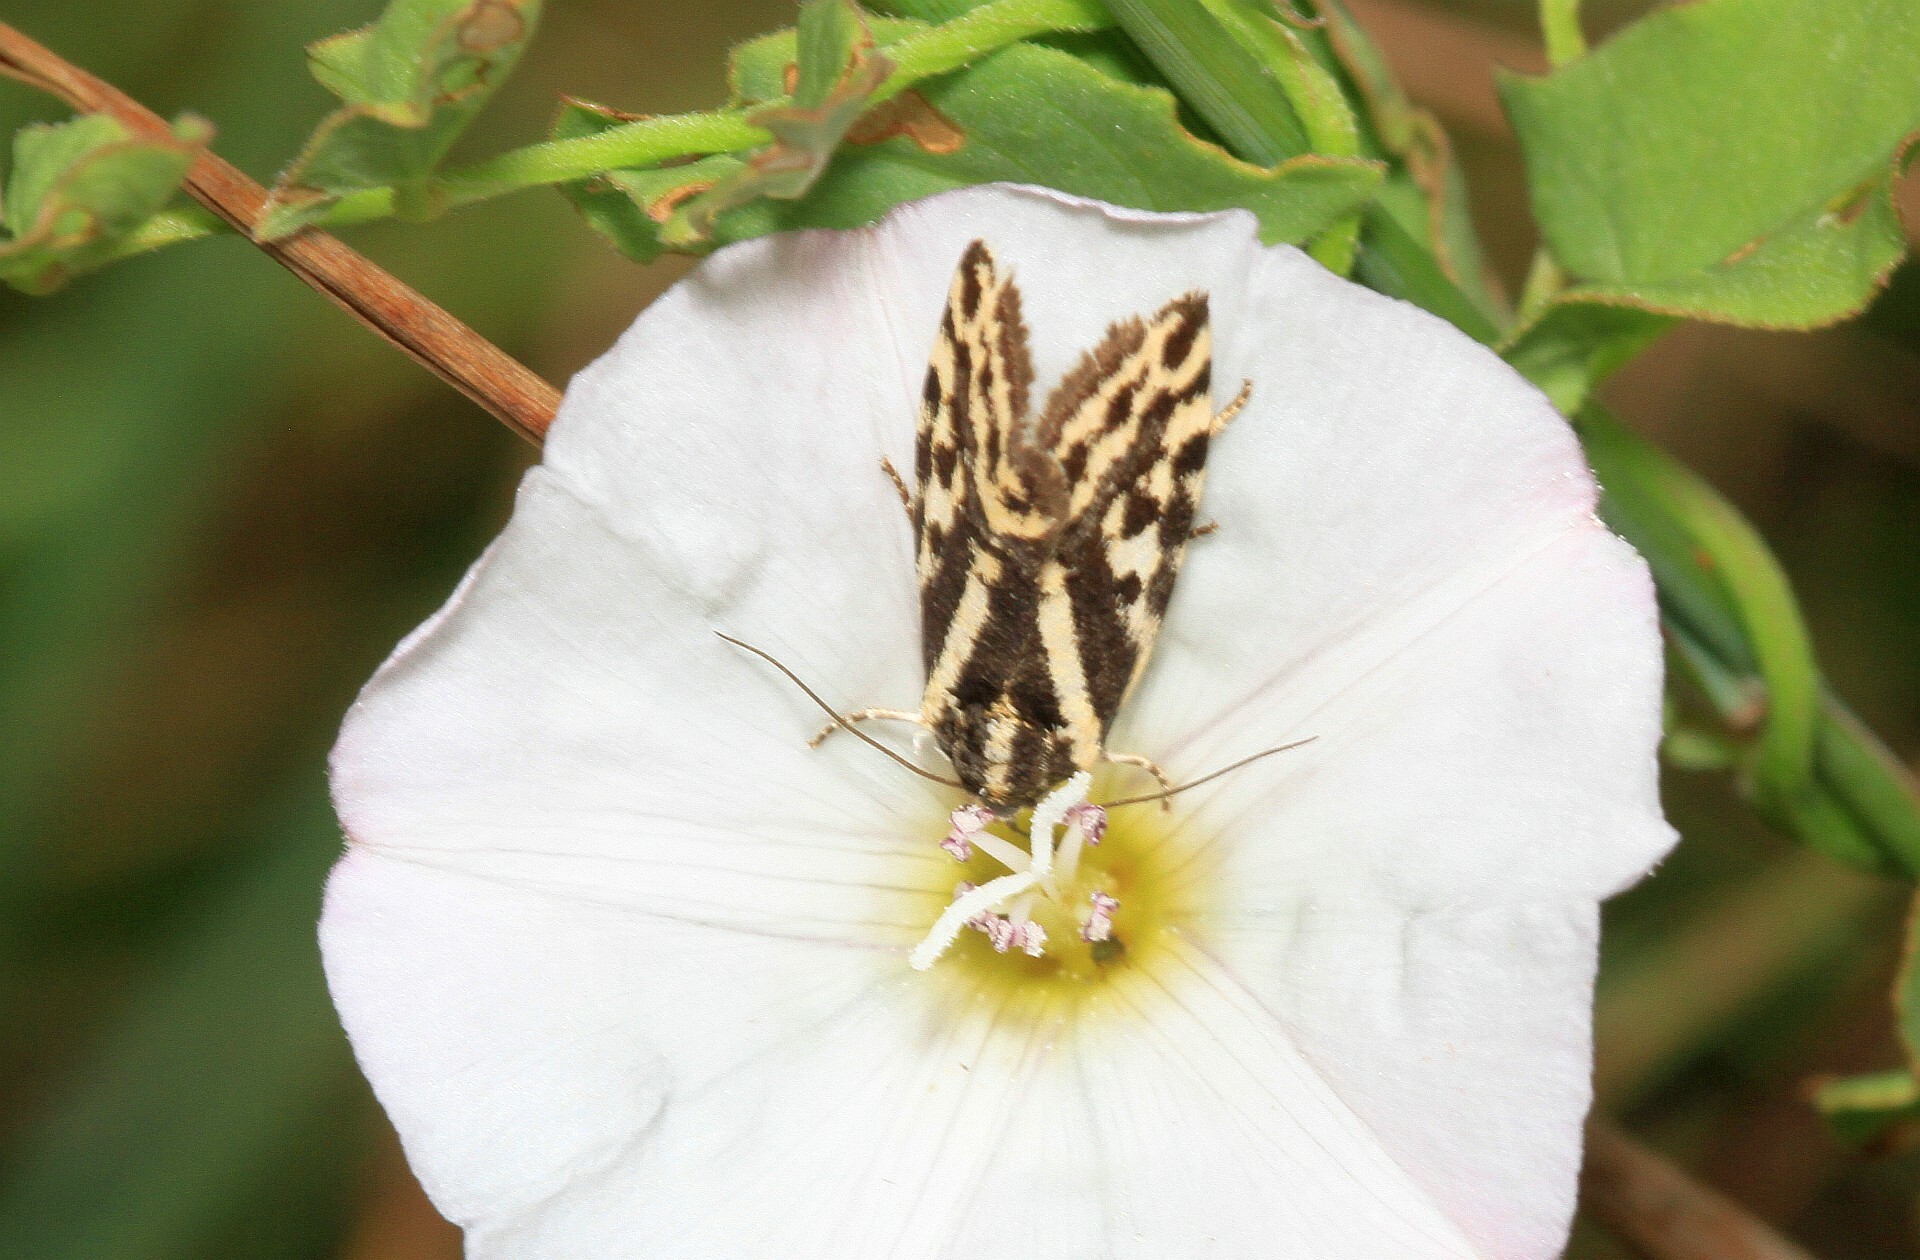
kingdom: Animalia
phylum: Arthropoda
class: Insecta
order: Lepidoptera
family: Noctuidae
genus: Acontia
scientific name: Acontia trabealis
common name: Spotted sulphur
